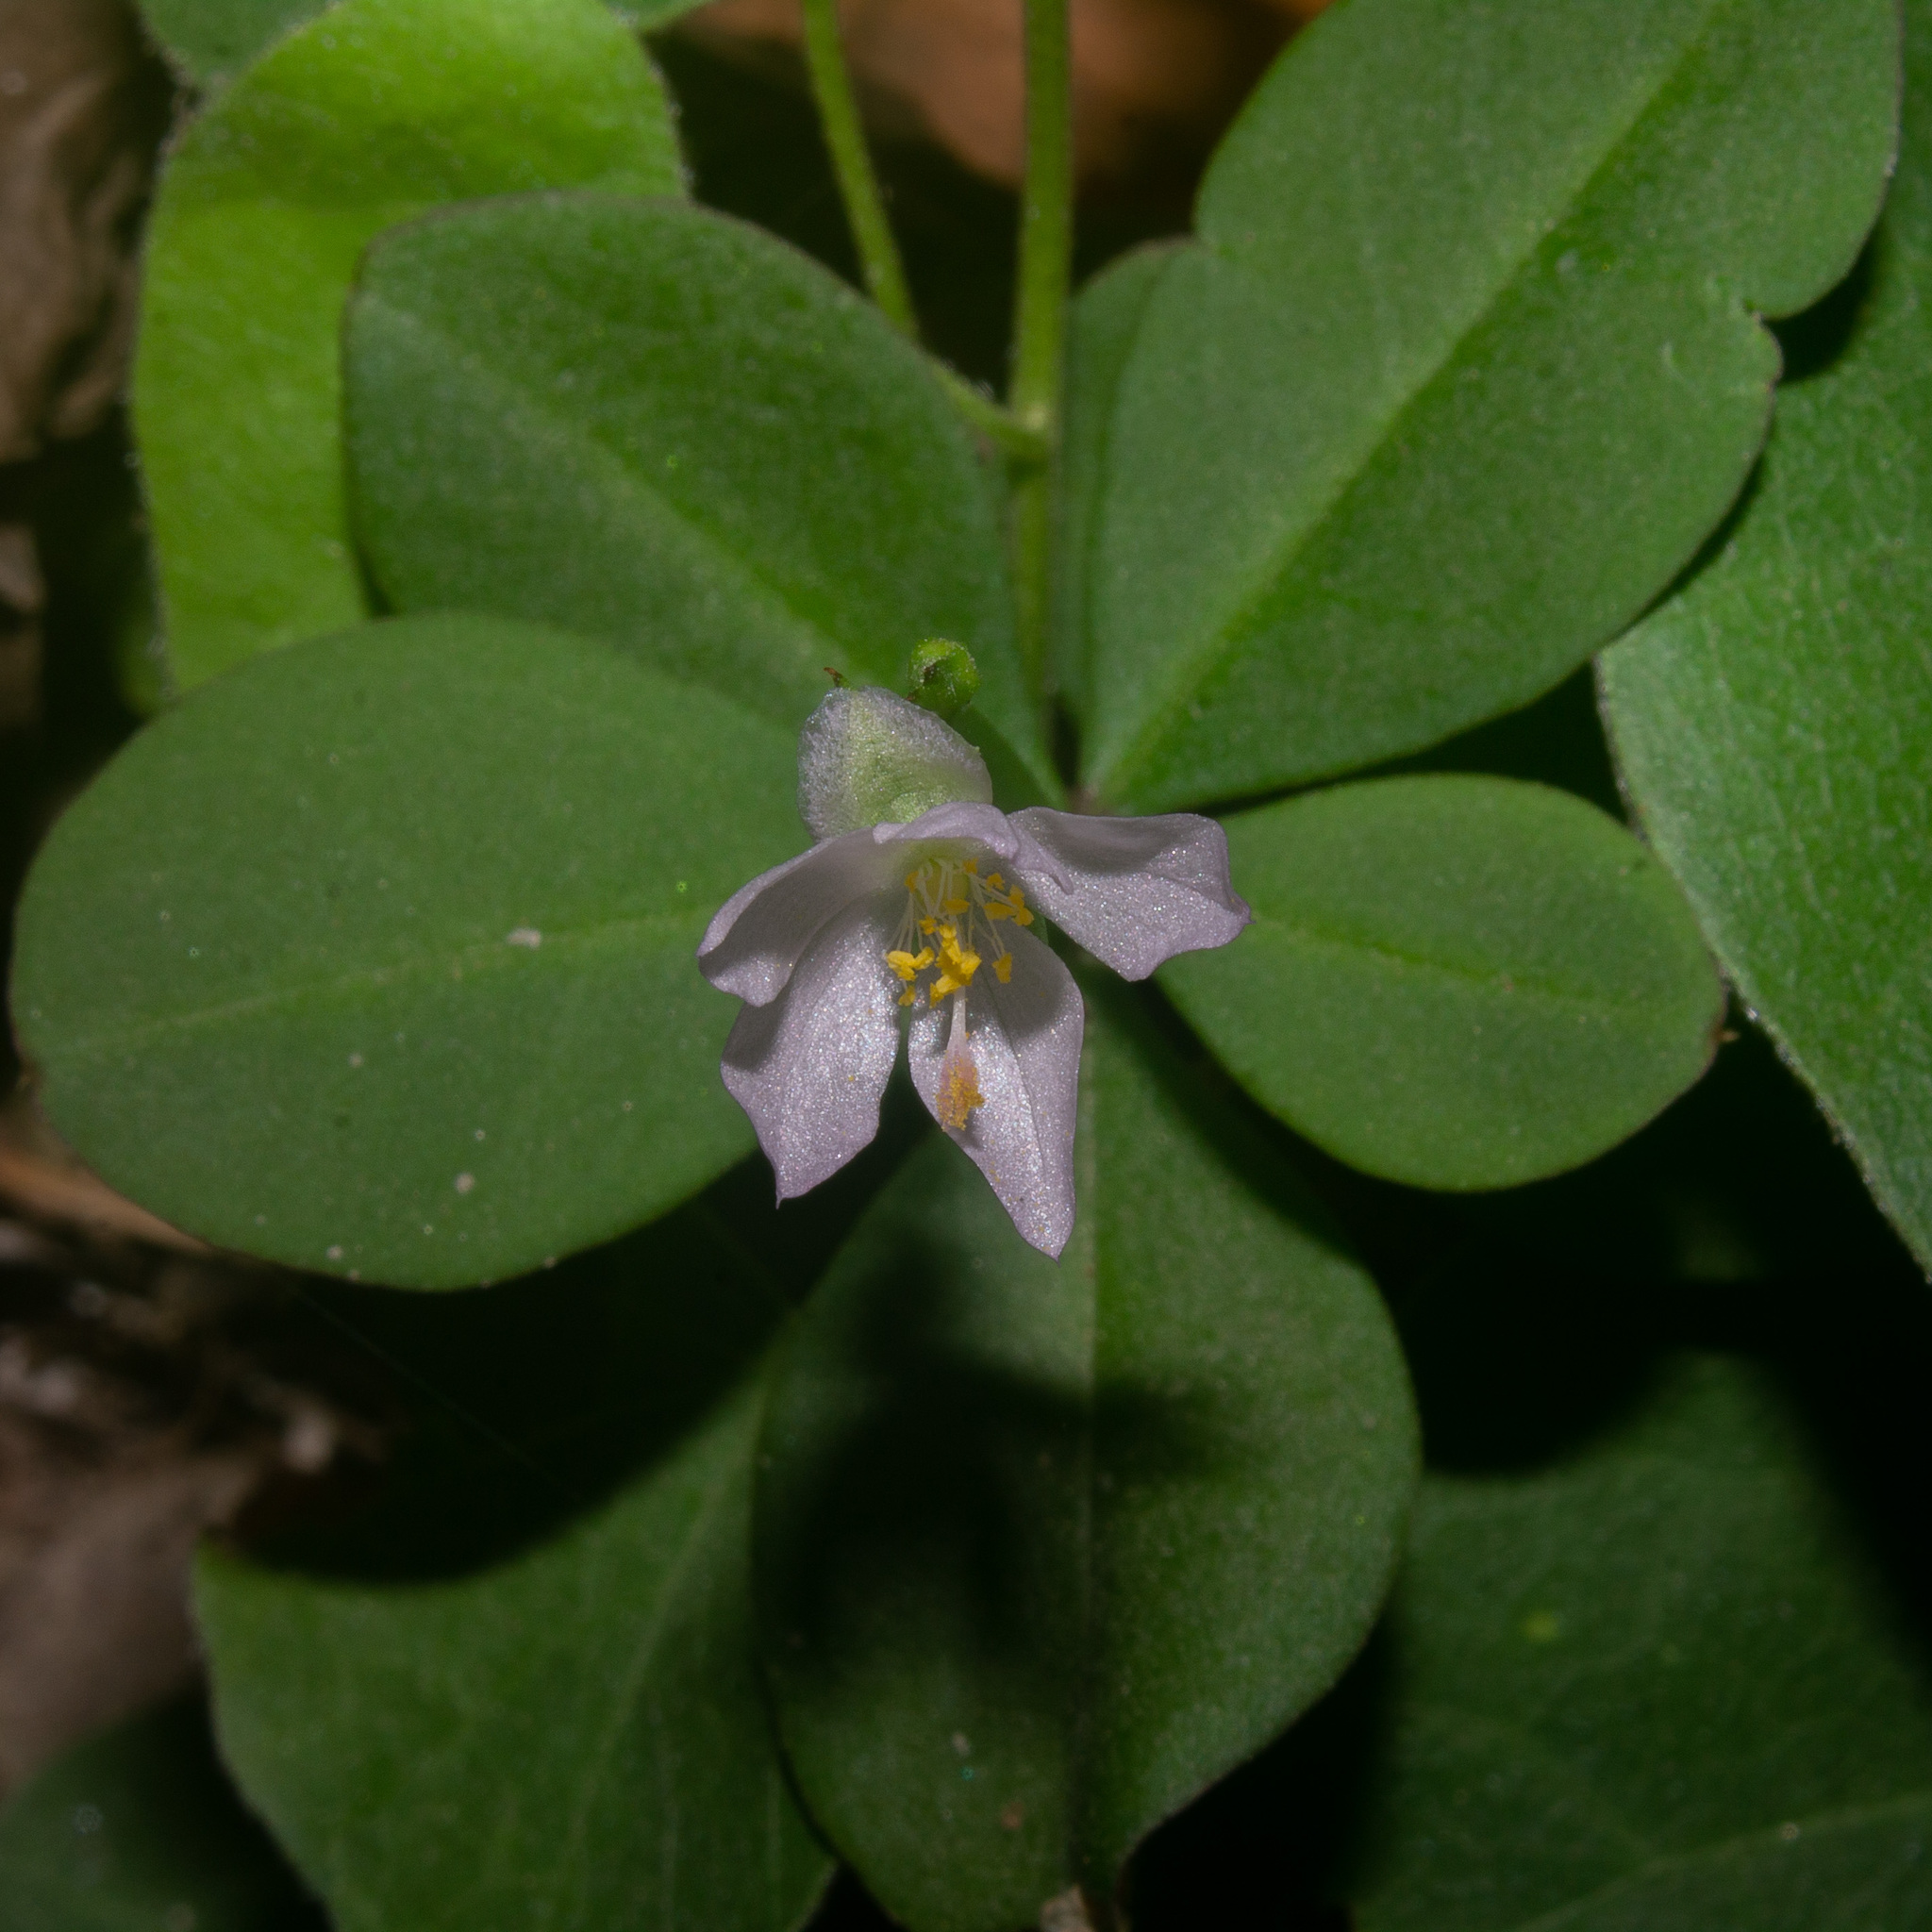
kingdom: Plantae
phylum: Tracheophyta
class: Magnoliopsida
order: Caryophyllales
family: Talinaceae
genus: Talinum
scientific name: Talinum fruticosum
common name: Verdolaga-francesa
